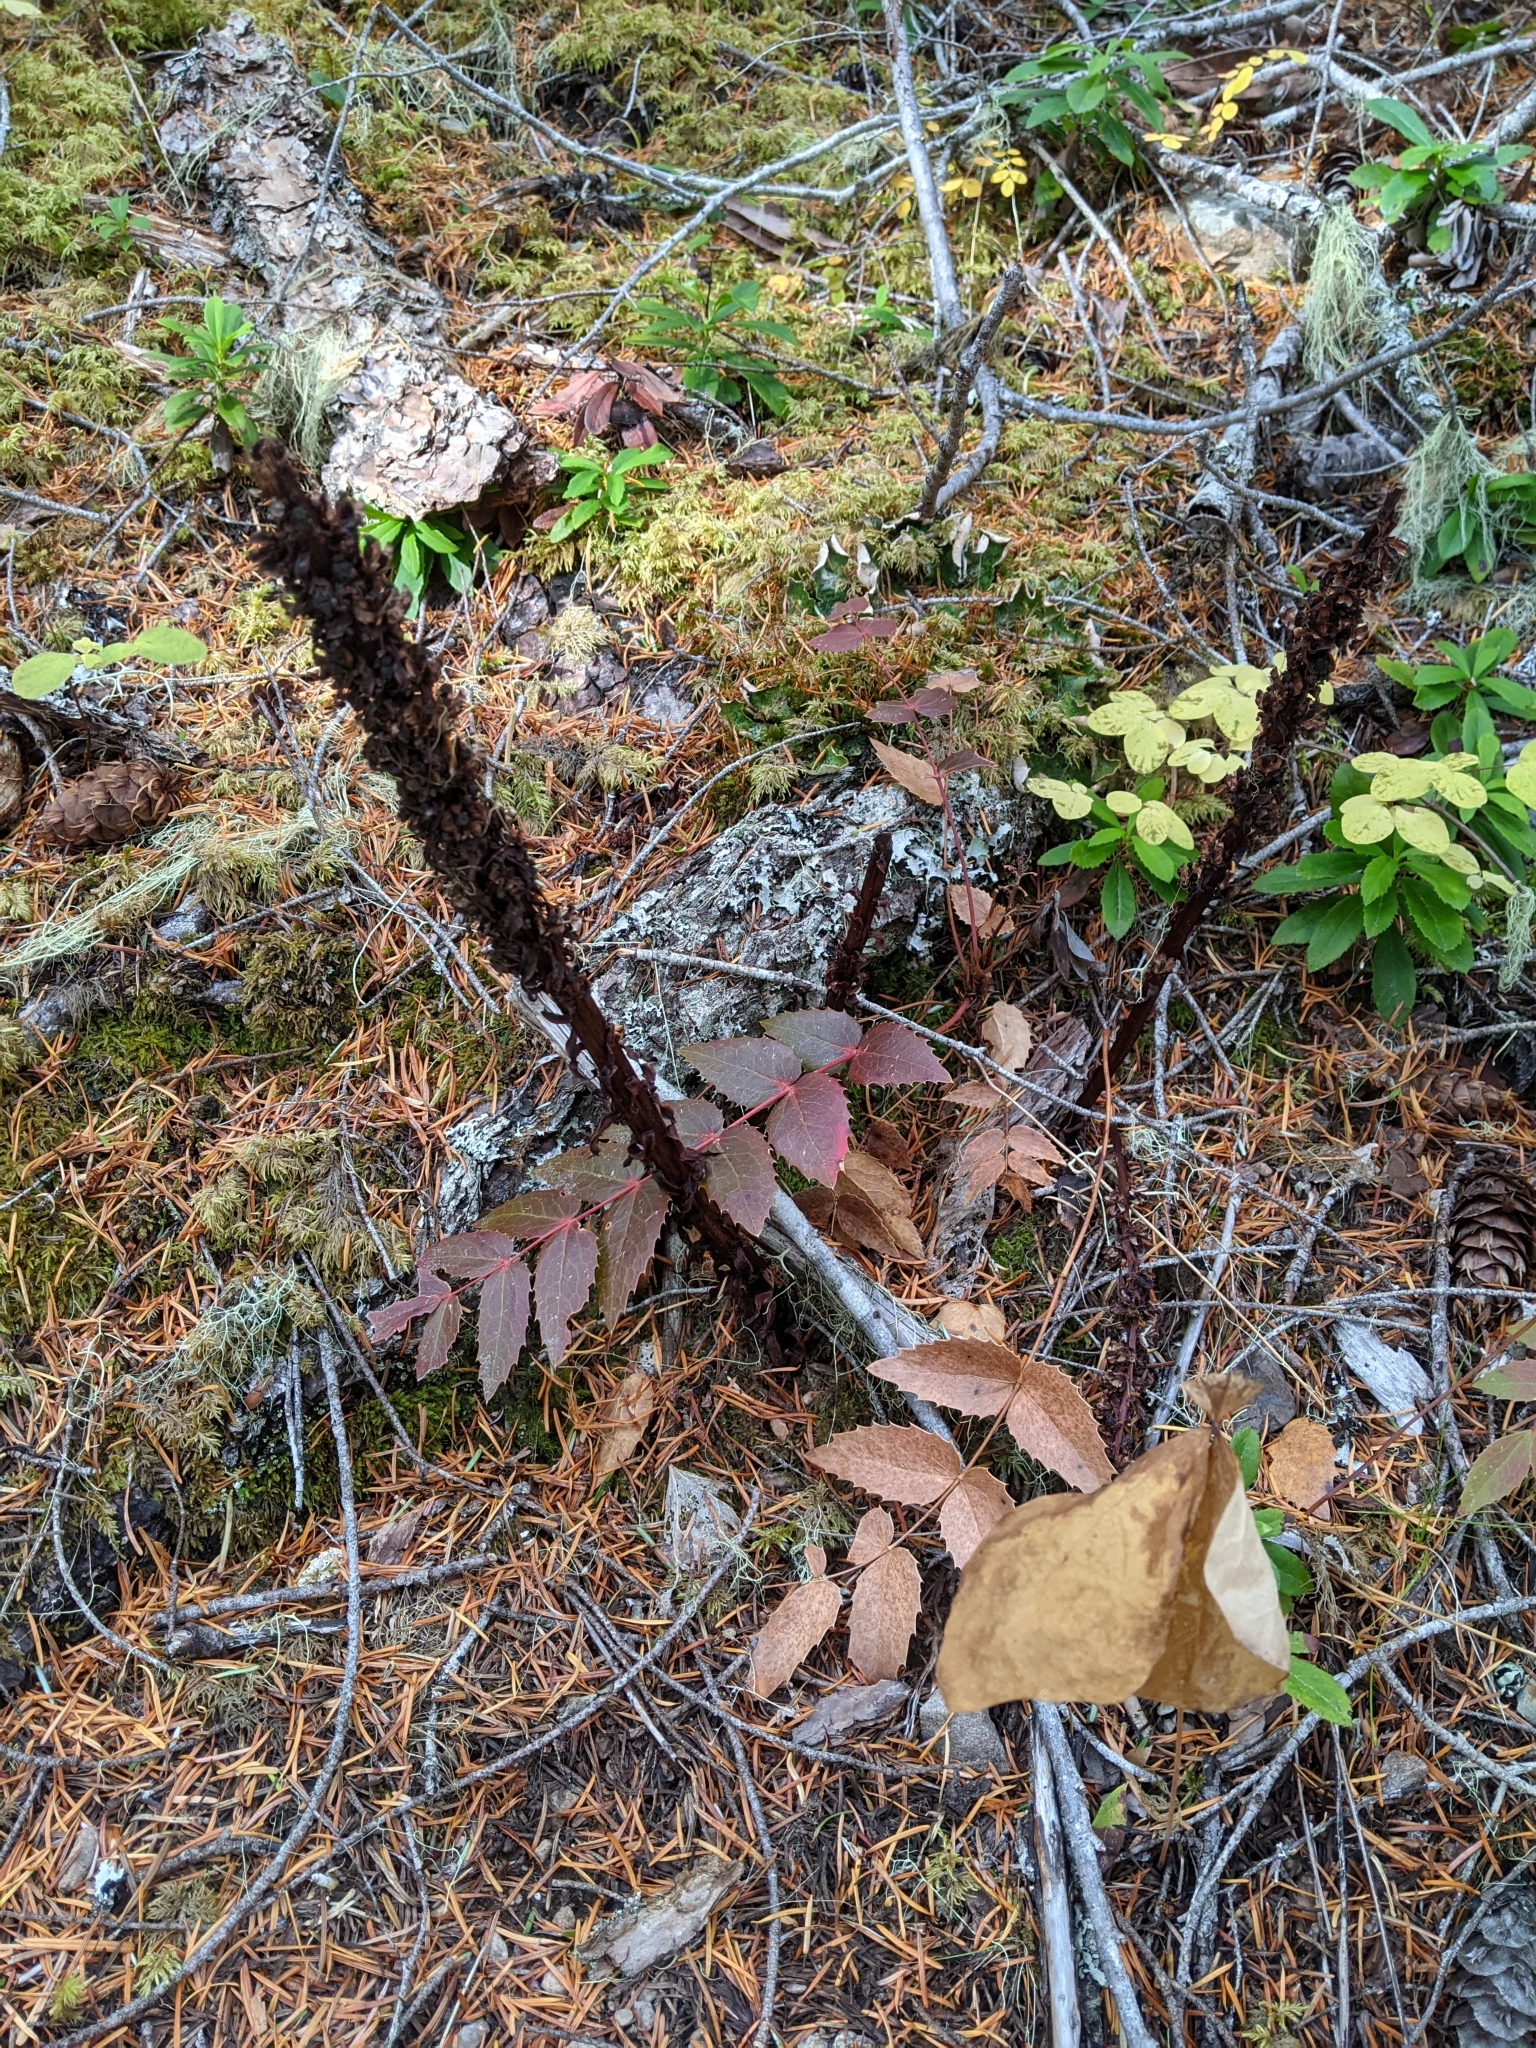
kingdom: Plantae
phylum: Tracheophyta
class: Magnoliopsida
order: Ericales
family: Ericaceae
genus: Allotropa
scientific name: Allotropa virgata
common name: Candy-striped allotropa
